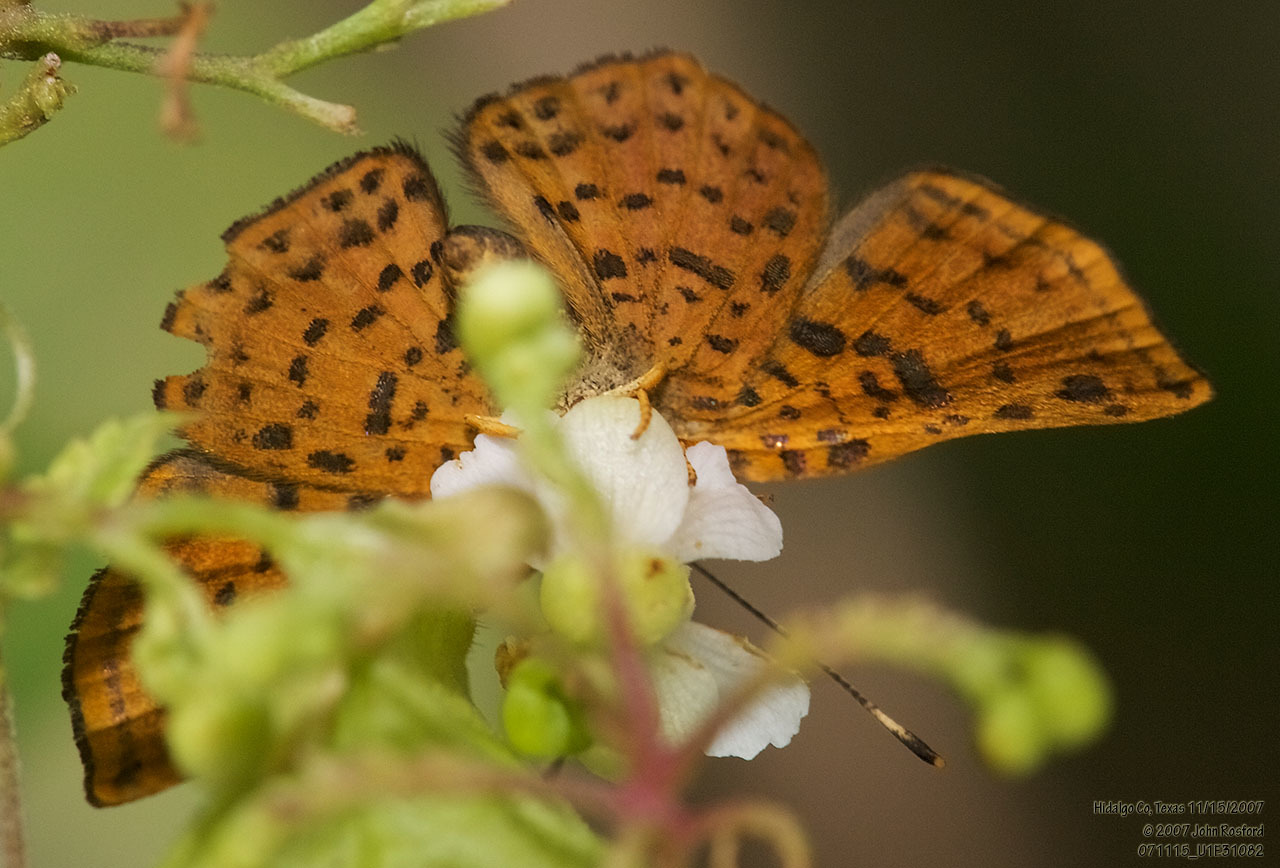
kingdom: Animalia
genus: Caria
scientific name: Caria ino
